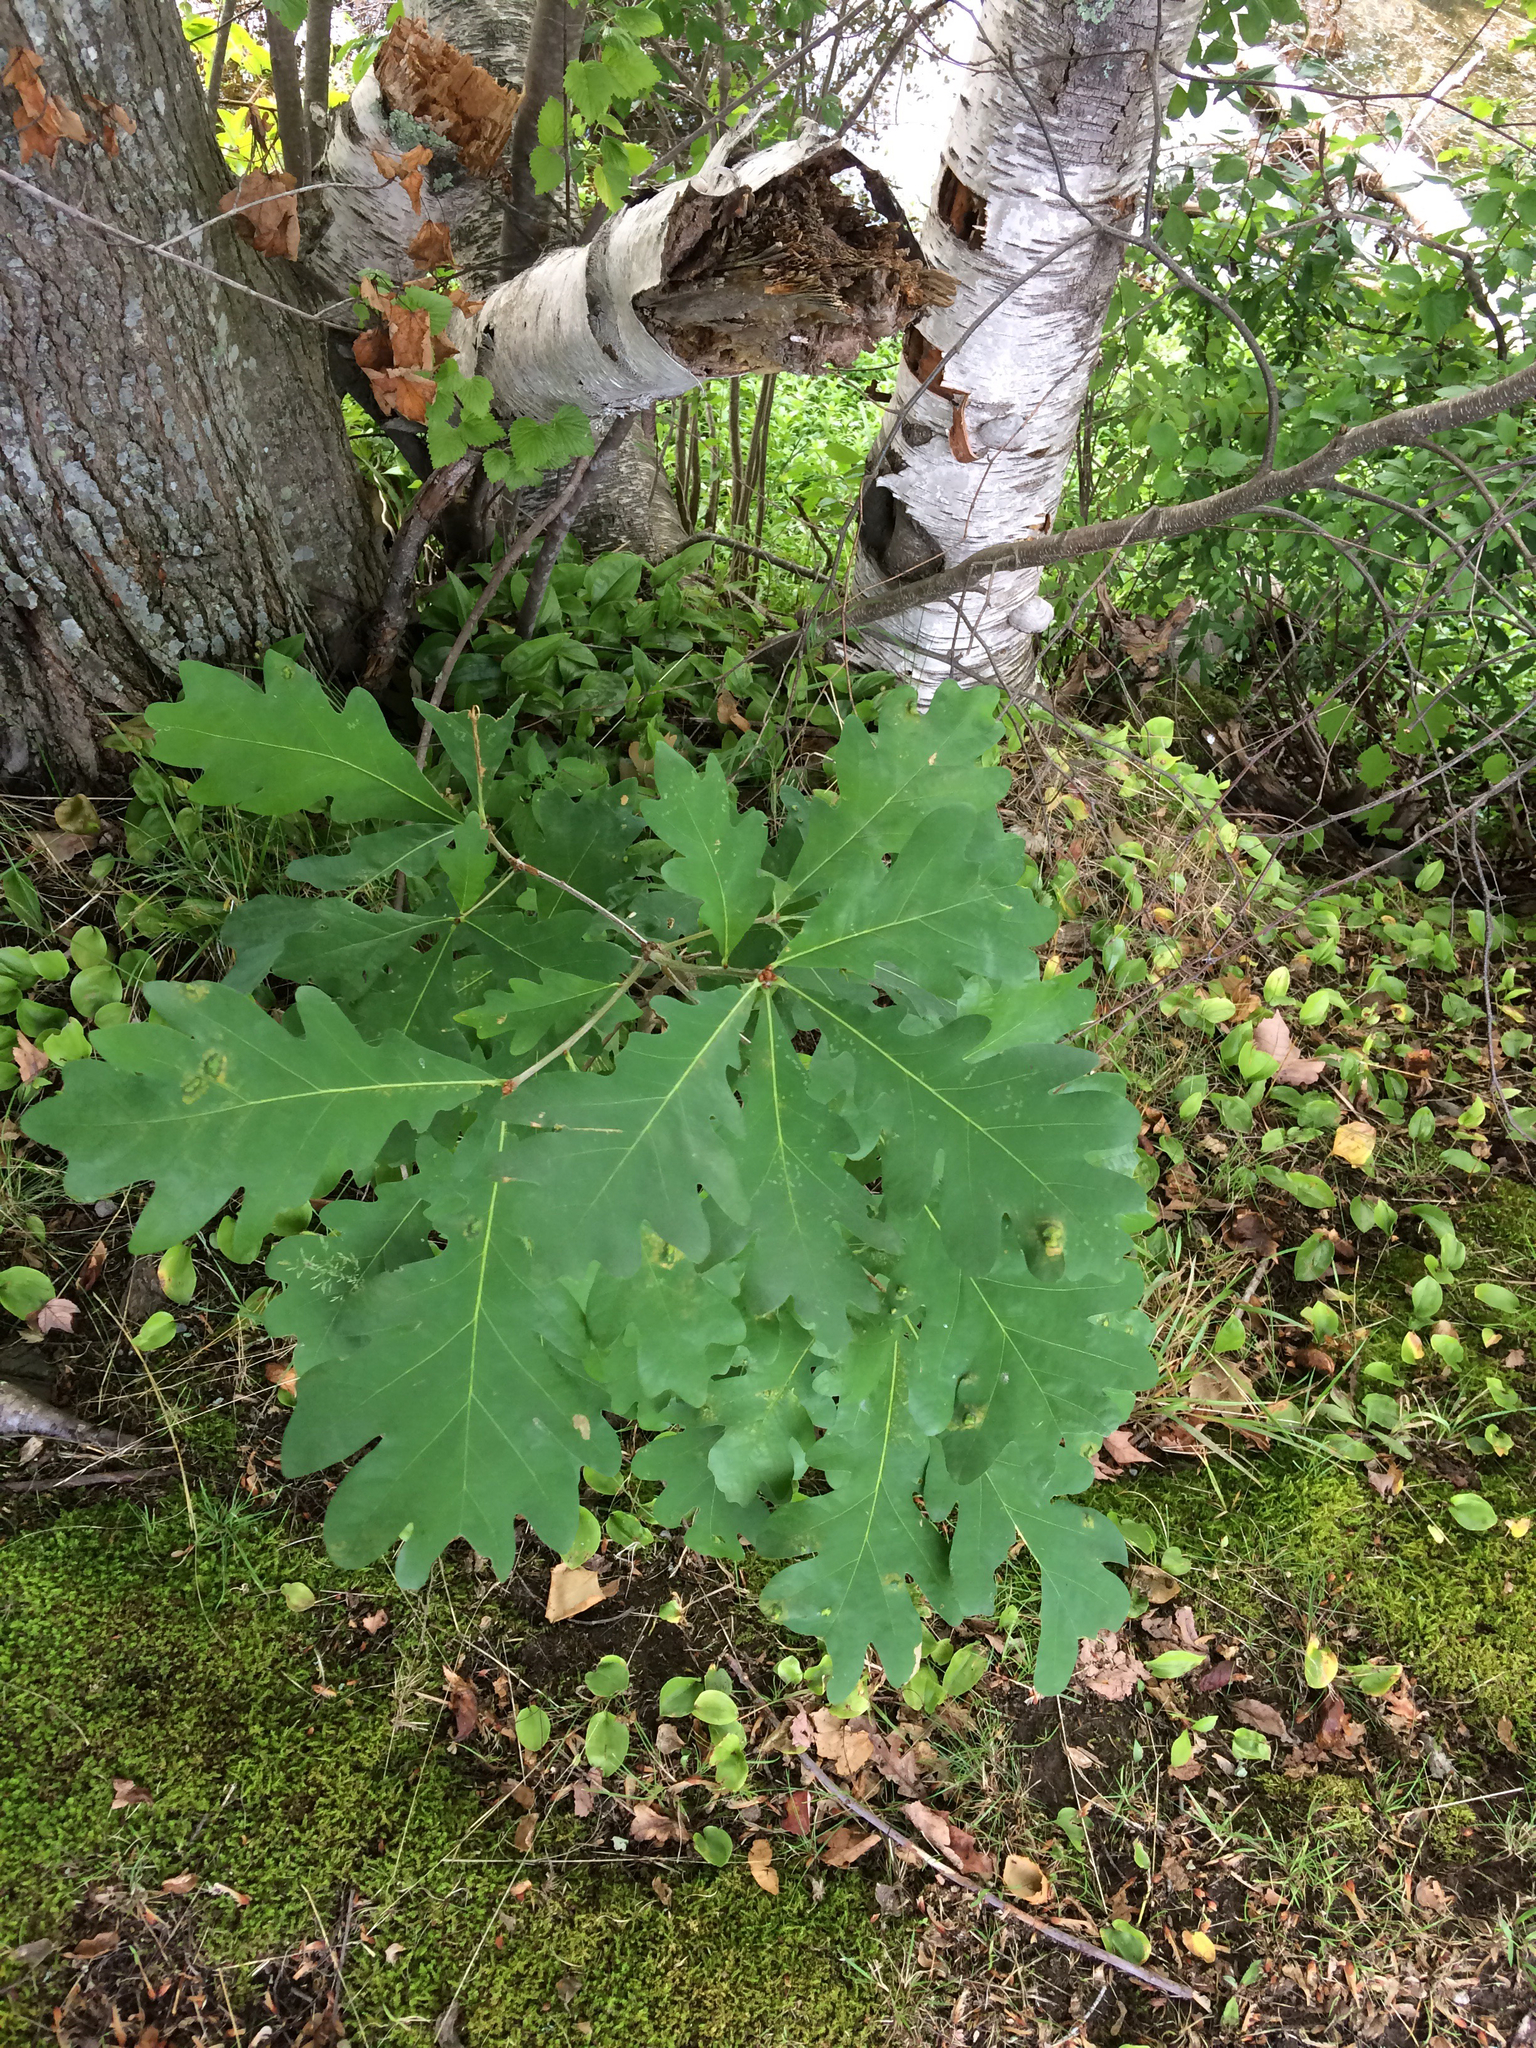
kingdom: Plantae
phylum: Tracheophyta
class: Magnoliopsida
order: Fagales
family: Fagaceae
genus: Quercus
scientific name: Quercus alba
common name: White oak
